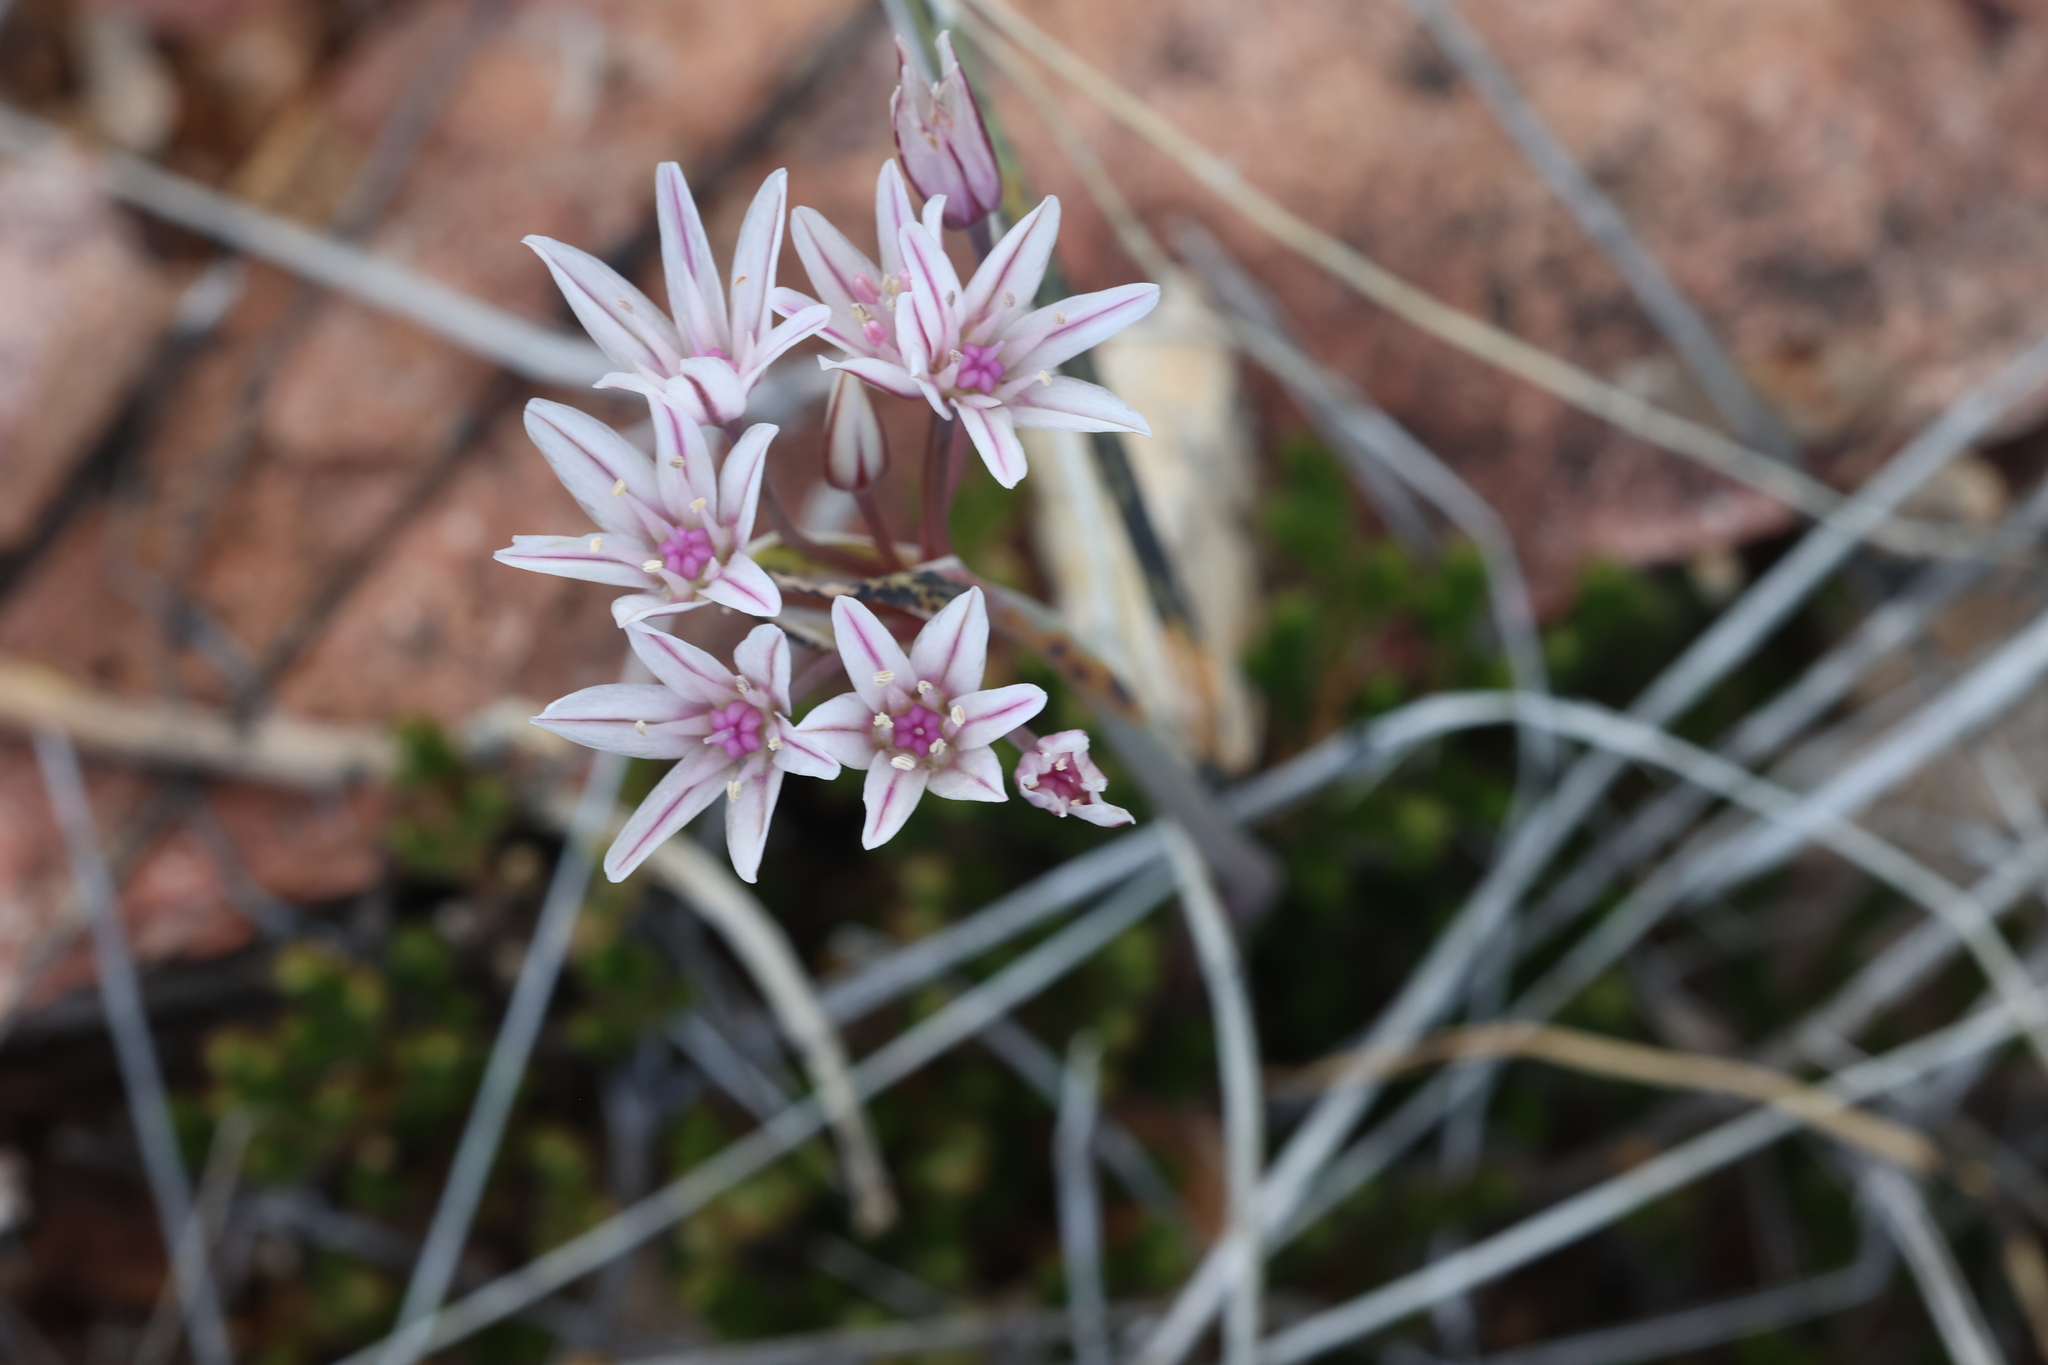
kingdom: Plantae
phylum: Tracheophyta
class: Liliopsida
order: Asparagales
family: Amaryllidaceae
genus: Allium
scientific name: Allium macropetalum
